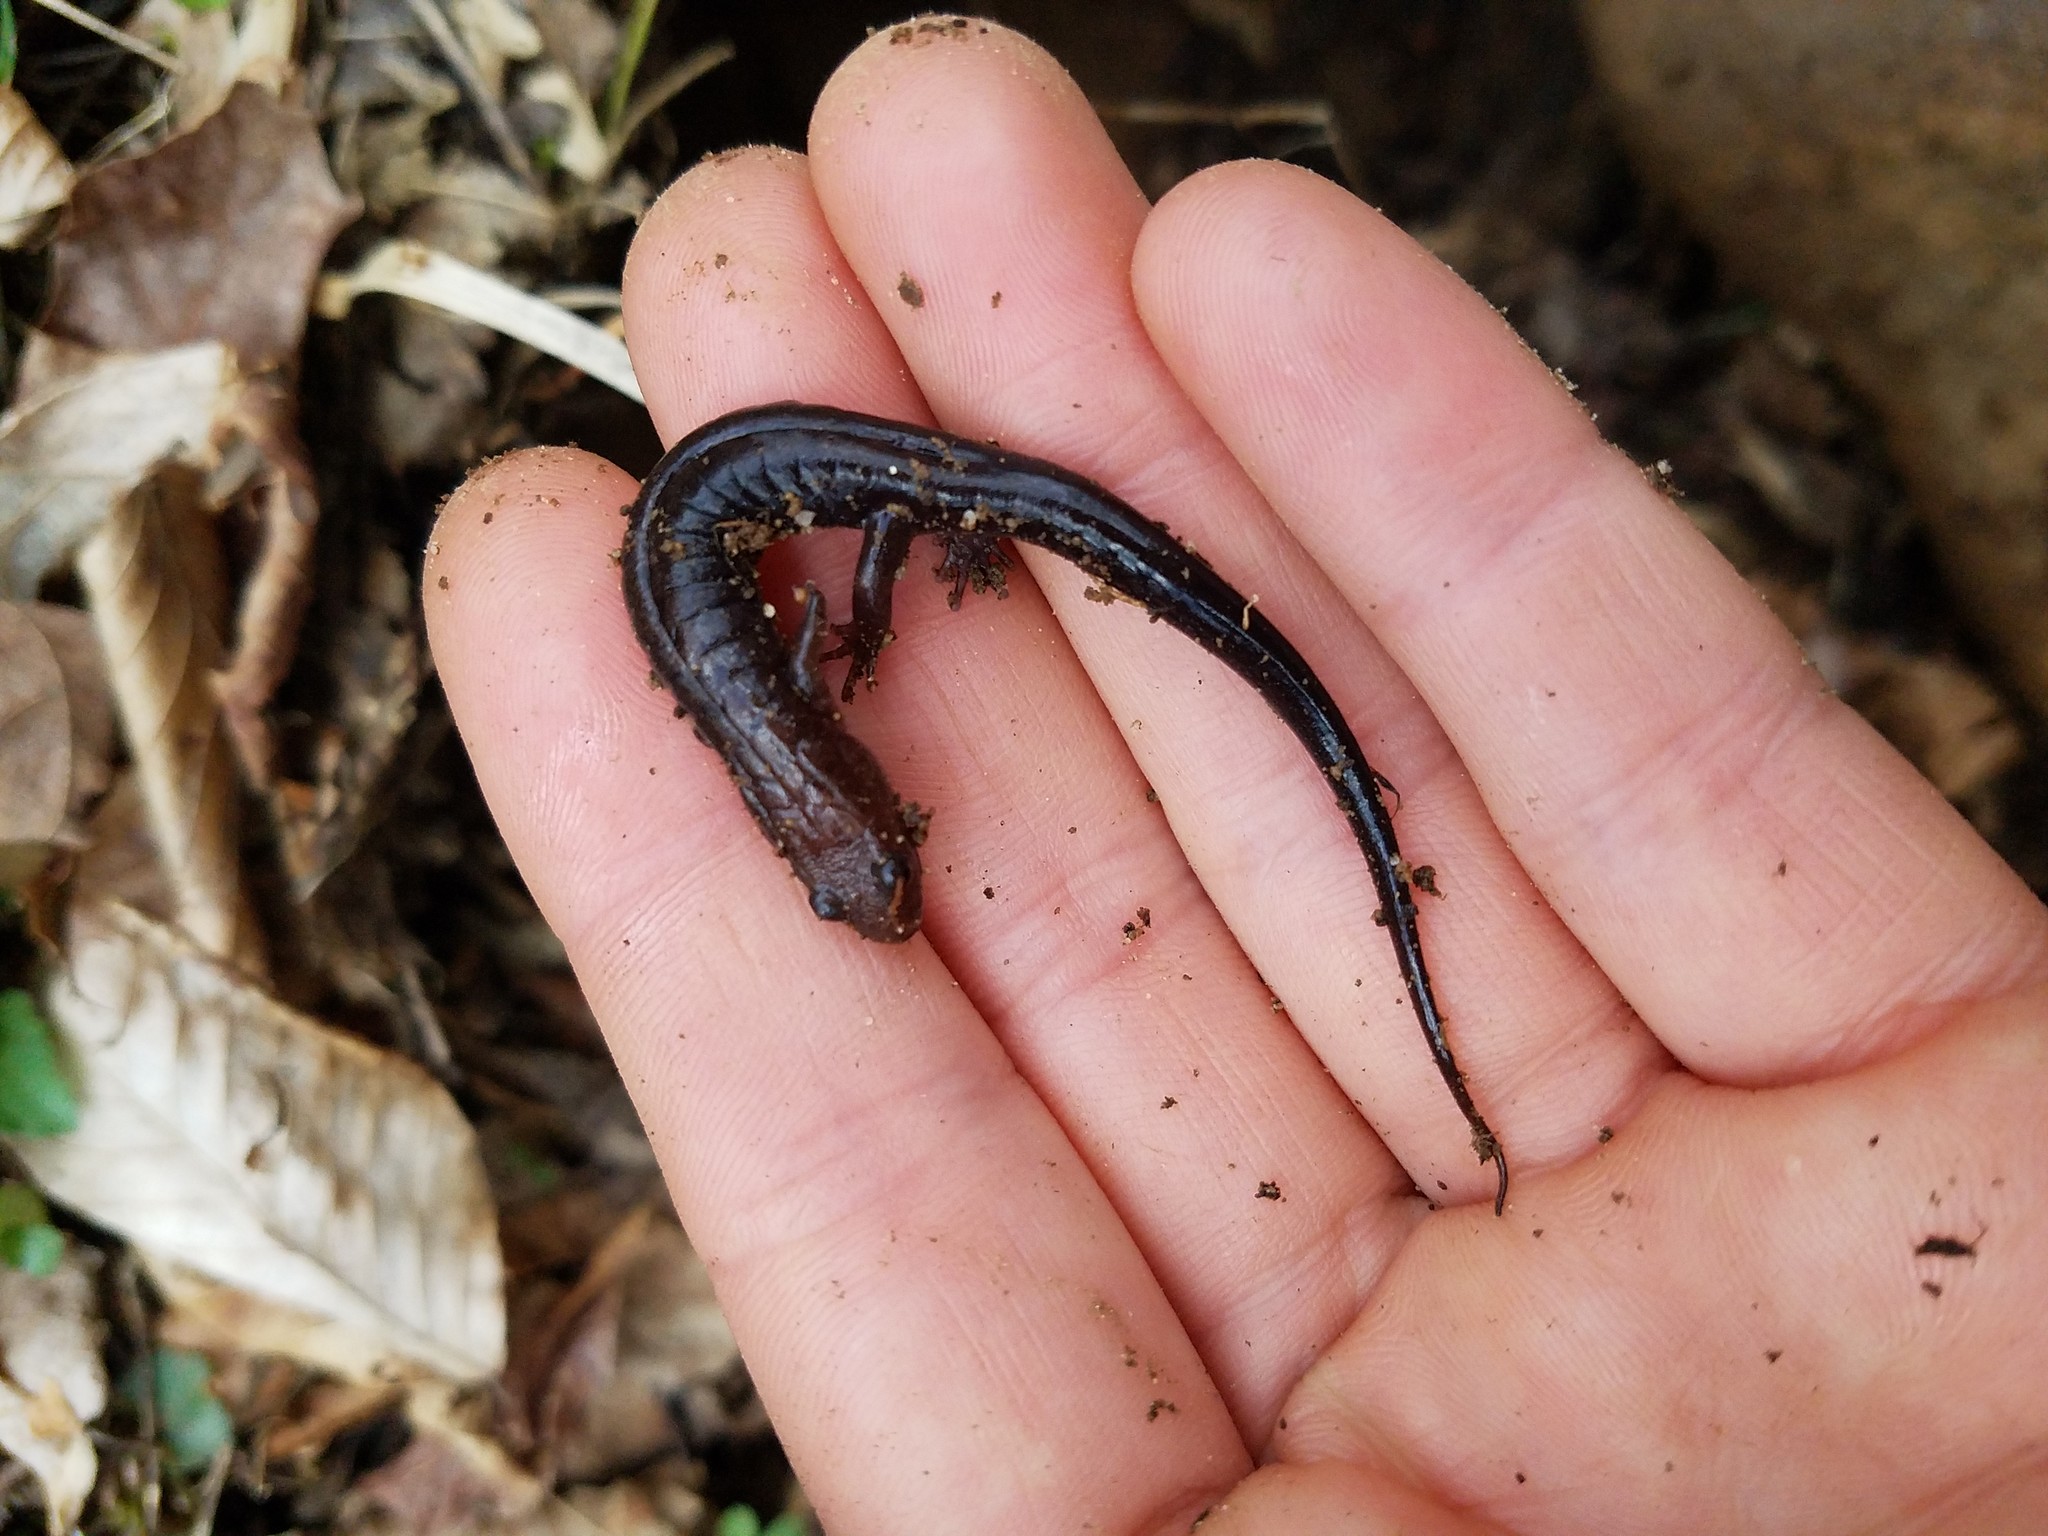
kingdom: Animalia
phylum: Chordata
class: Amphibia
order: Caudata
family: Plethodontidae
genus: Desmognathus
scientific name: Desmognathus ochrophaeus
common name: Allegheny mountain dusky salamander
